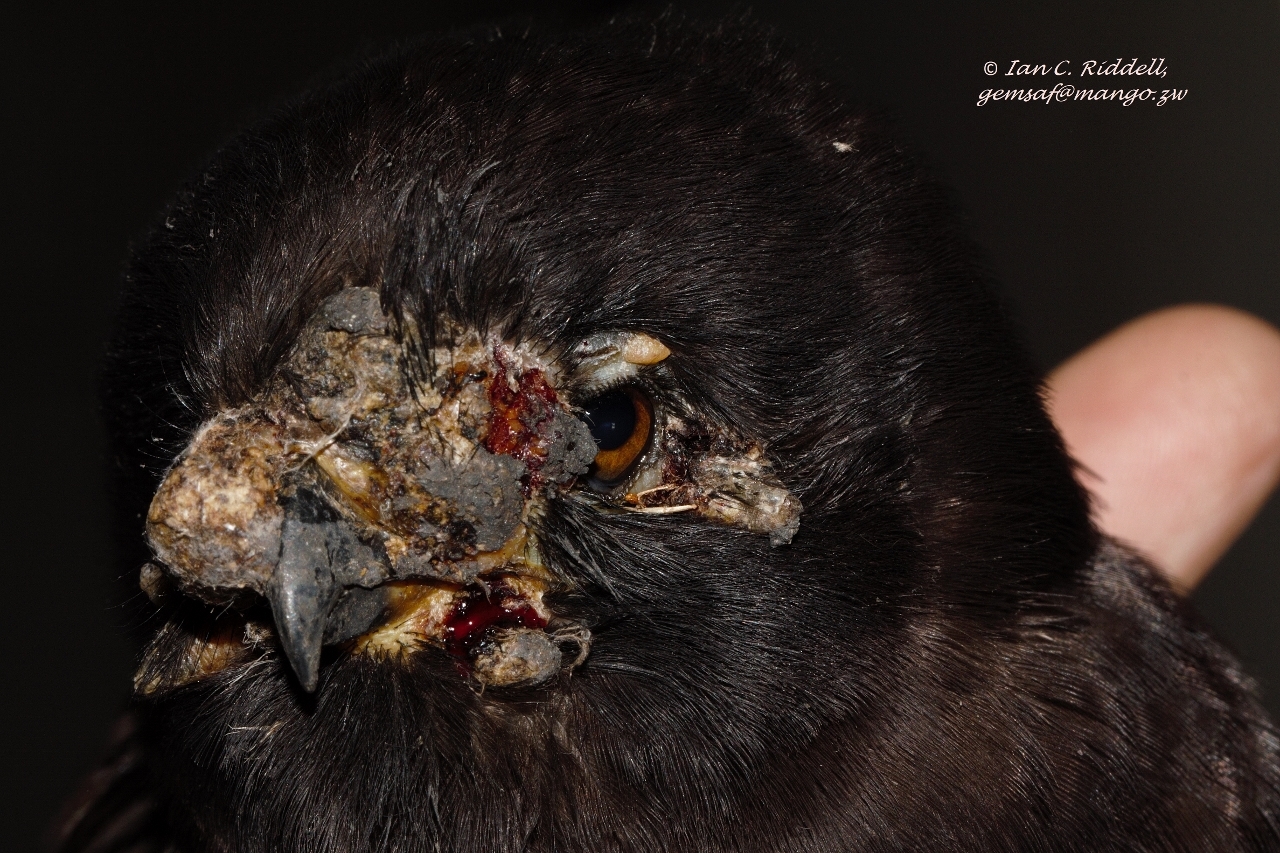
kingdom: Animalia
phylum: Chordata
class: Aves
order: Accipitriformes
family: Accipitridae
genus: Micronisus
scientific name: Micronisus gabar
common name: Gabar goshawk
